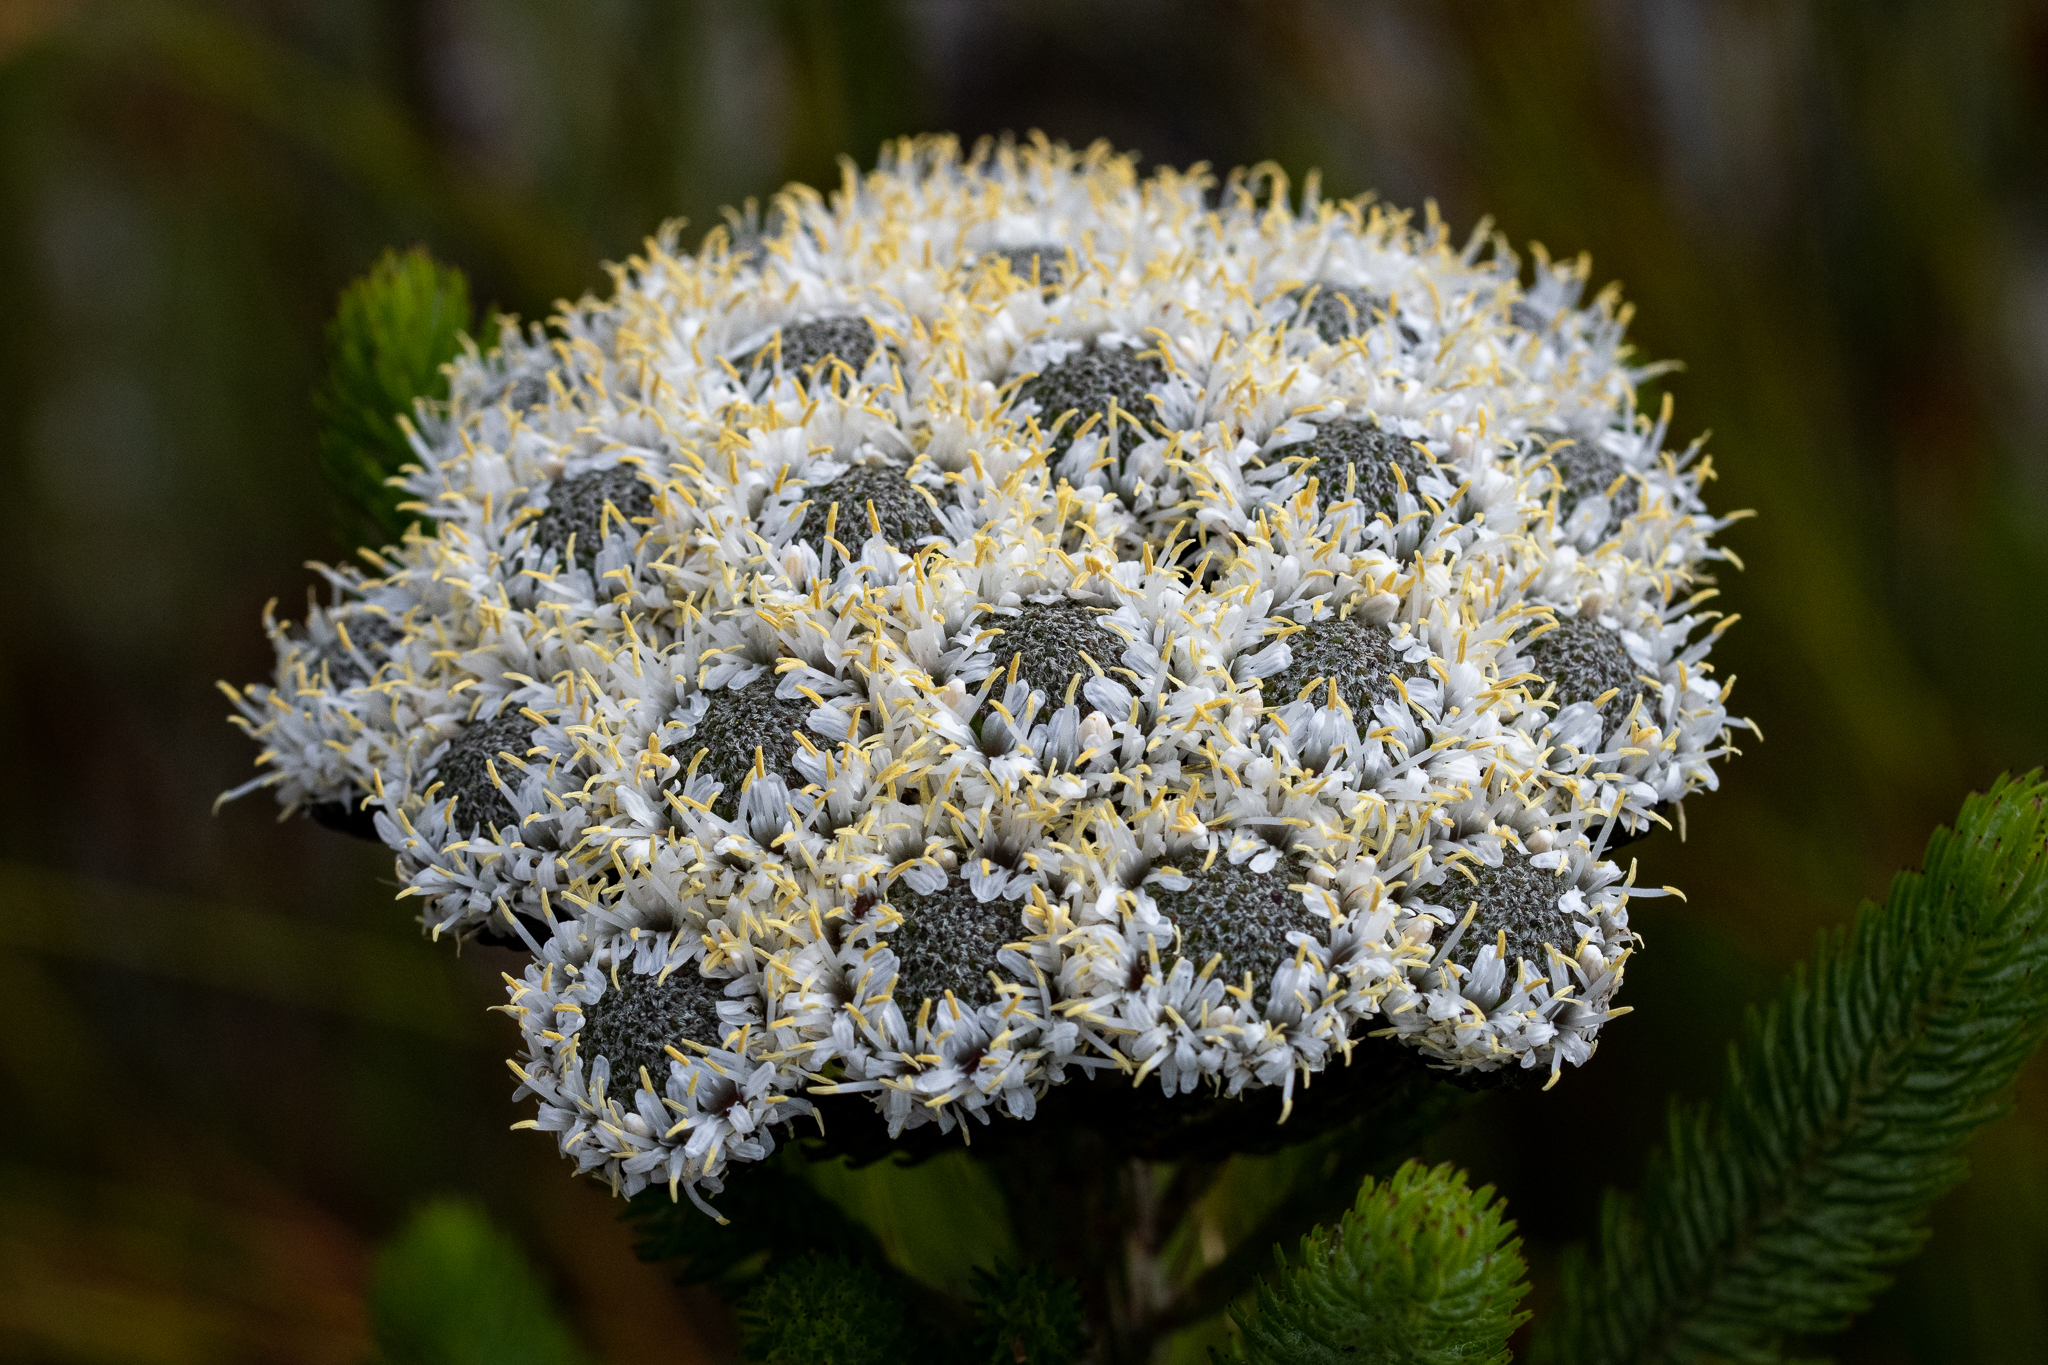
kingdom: Plantae
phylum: Tracheophyta
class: Magnoliopsida
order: Bruniales
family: Bruniaceae
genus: Berzelia
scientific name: Berzelia albiflora
